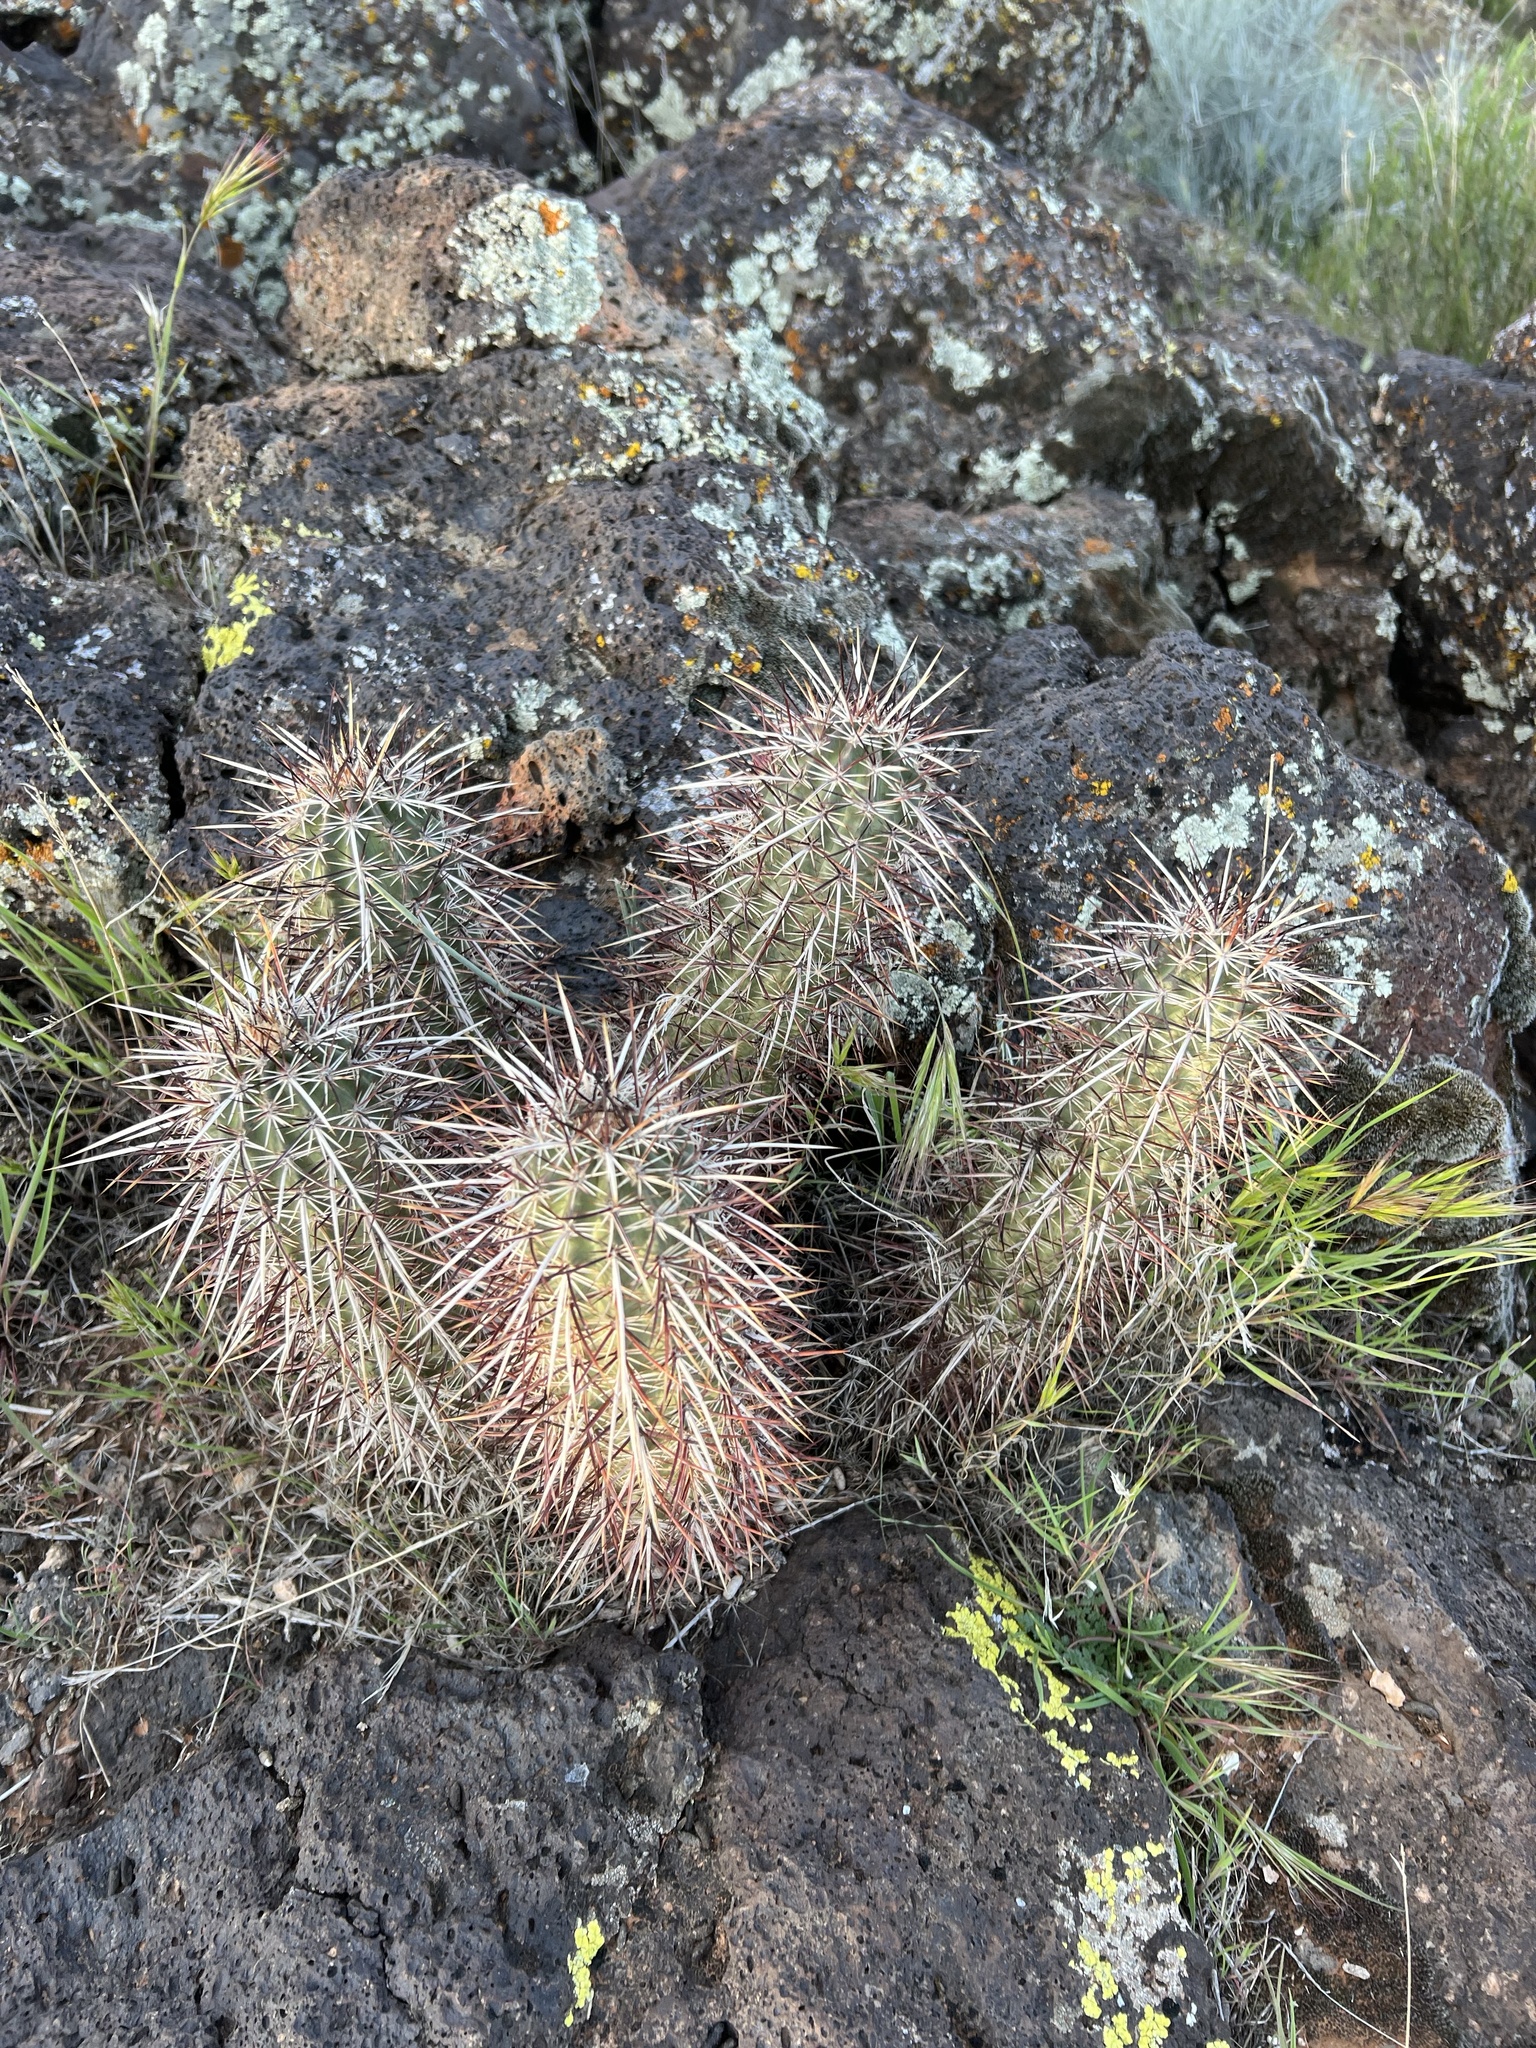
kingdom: Plantae
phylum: Tracheophyta
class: Magnoliopsida
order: Caryophyllales
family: Cactaceae
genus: Echinocereus
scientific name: Echinocereus relictus
